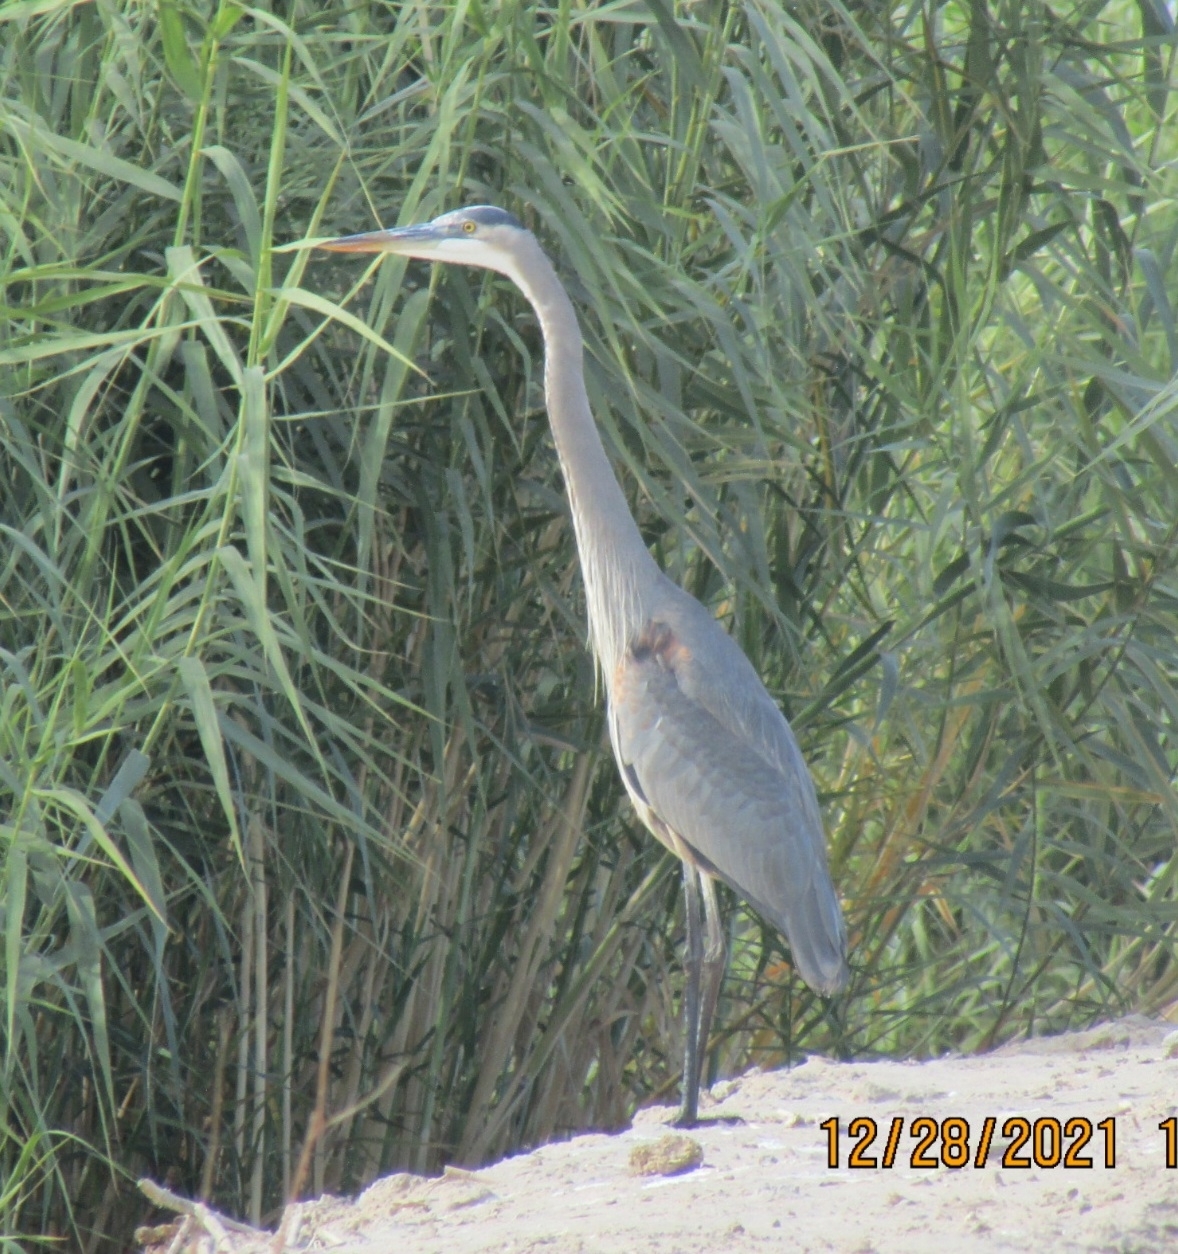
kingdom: Animalia
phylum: Chordata
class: Aves
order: Pelecaniformes
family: Ardeidae
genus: Ardea
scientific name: Ardea herodias
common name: Great blue heron
